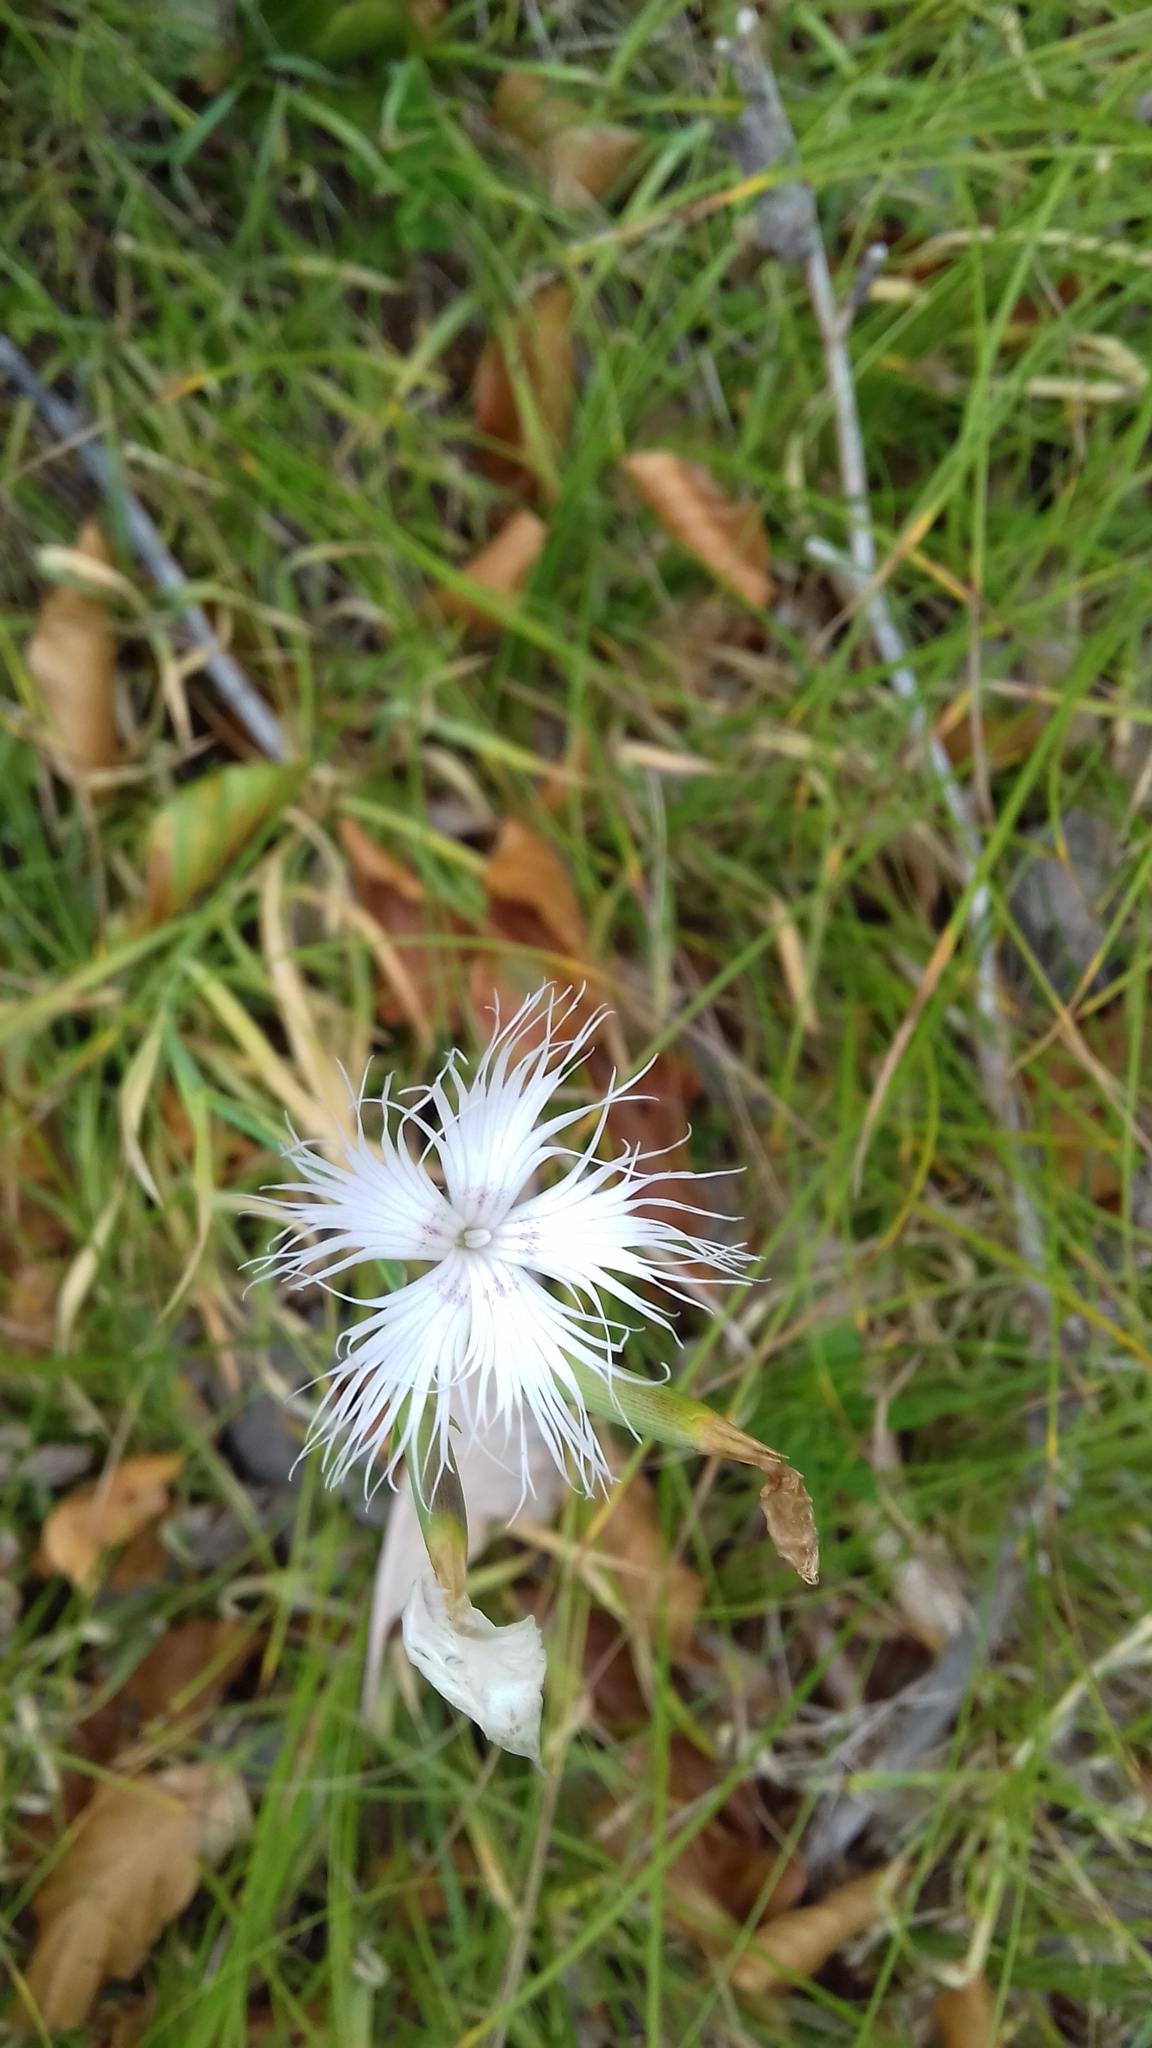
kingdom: Plantae
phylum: Tracheophyta
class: Magnoliopsida
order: Caryophyllales
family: Caryophyllaceae
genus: Dianthus
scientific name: Dianthus hyssopifolius
